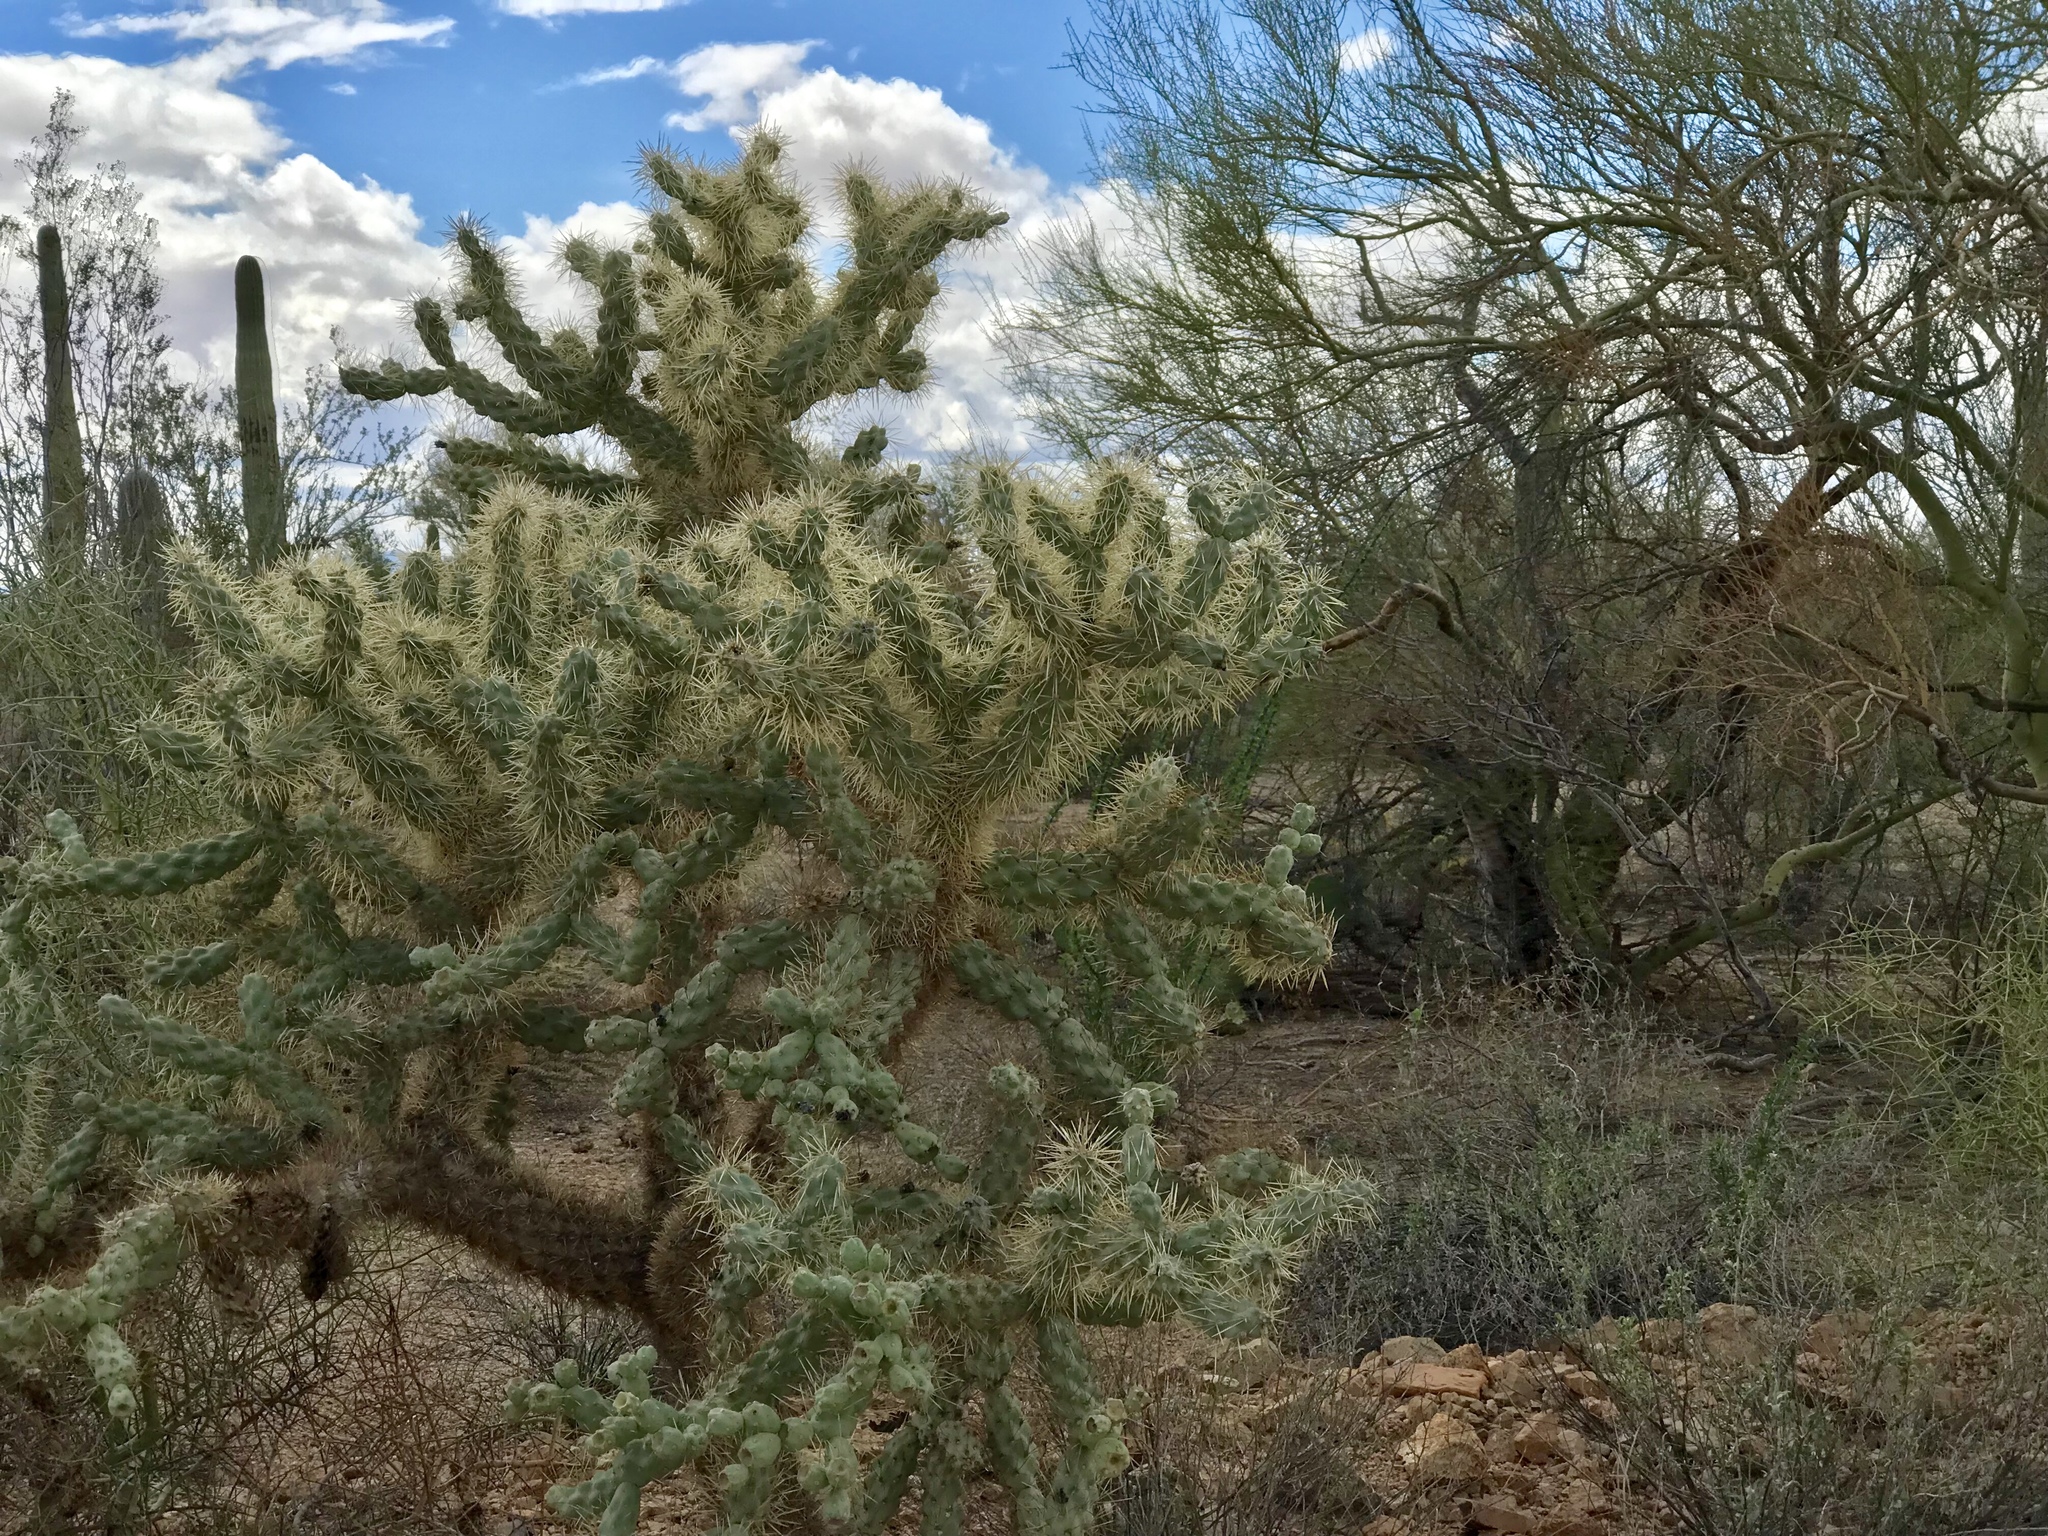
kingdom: Plantae
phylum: Tracheophyta
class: Magnoliopsida
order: Caryophyllales
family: Cactaceae
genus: Cylindropuntia
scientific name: Cylindropuntia fulgida
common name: Jumping cholla
